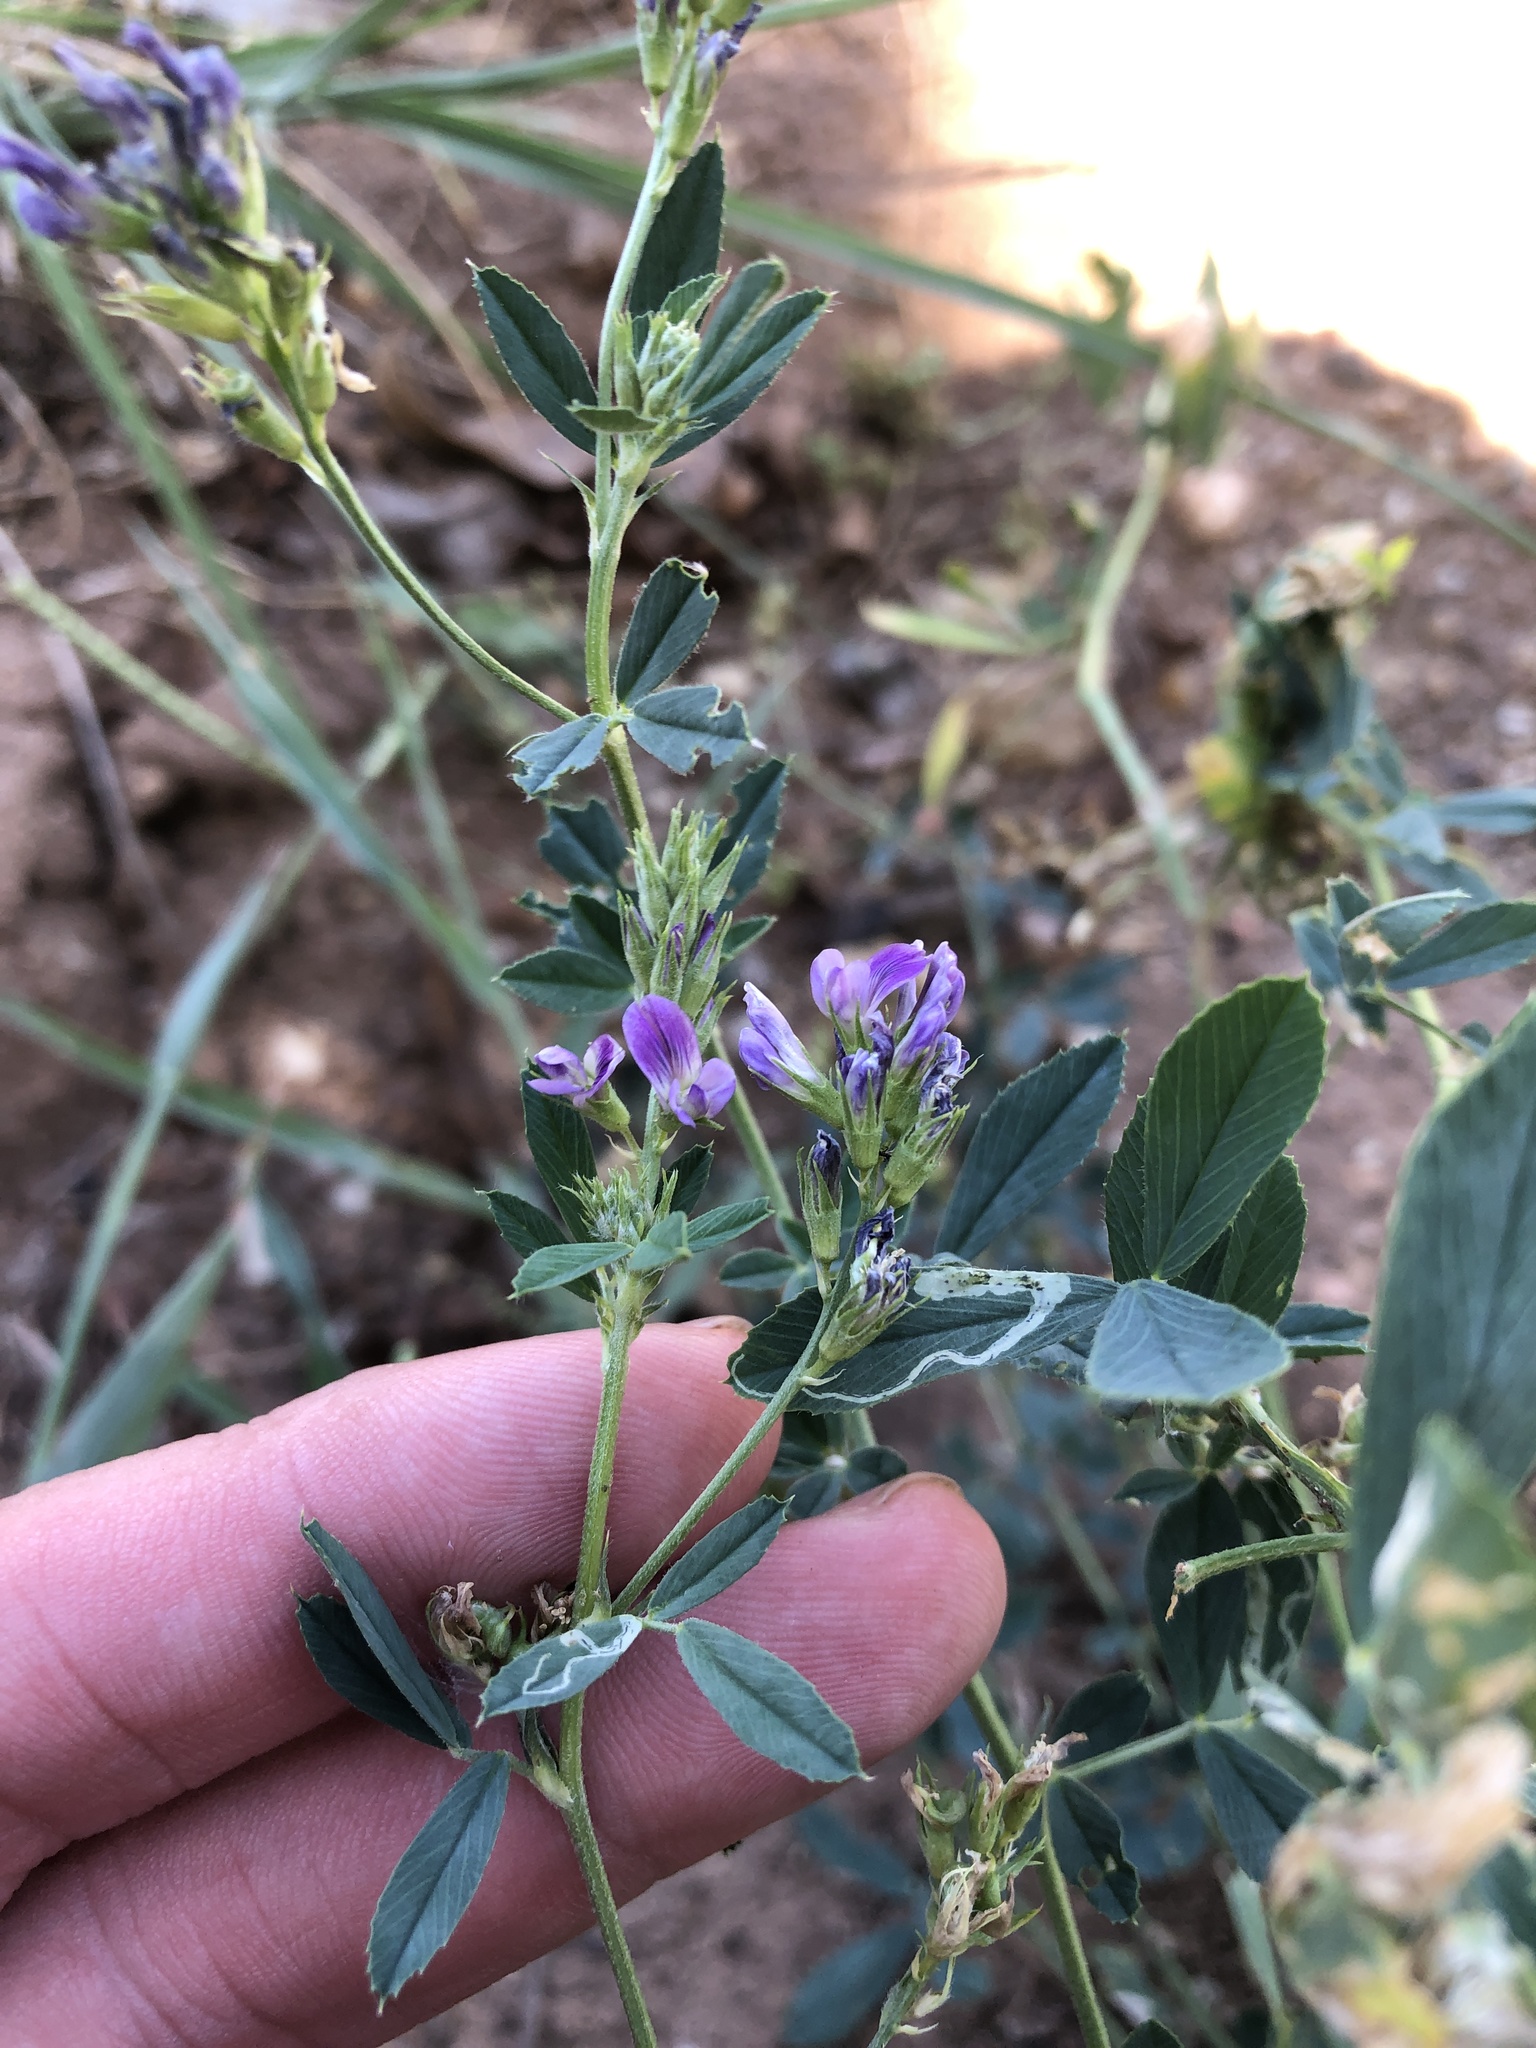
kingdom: Plantae
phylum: Tracheophyta
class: Magnoliopsida
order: Fabales
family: Fabaceae
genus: Medicago
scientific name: Medicago sativa
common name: Alfalfa
